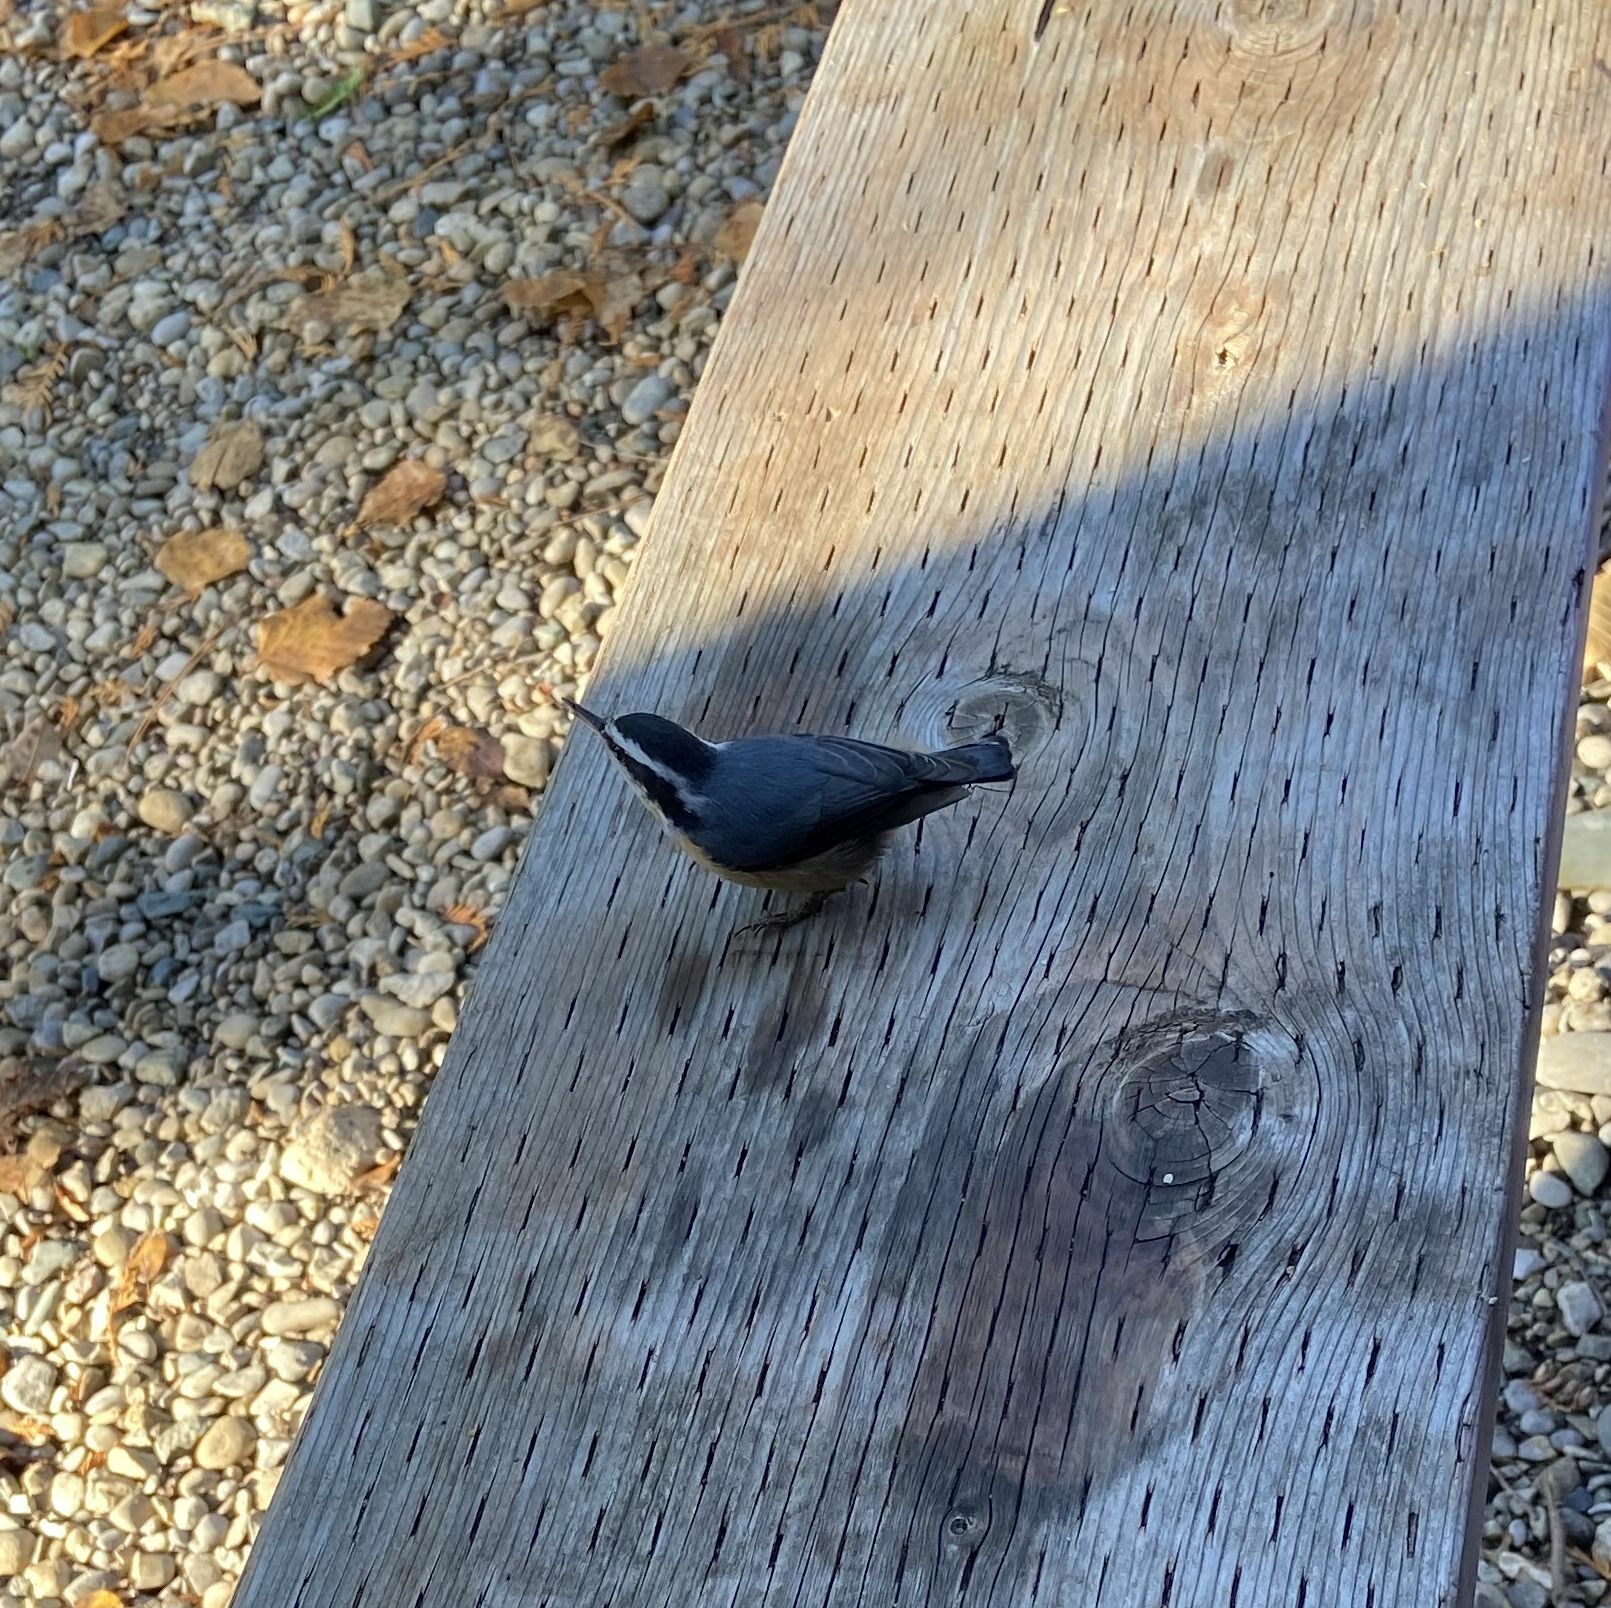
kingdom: Animalia
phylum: Chordata
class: Aves
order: Passeriformes
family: Sittidae
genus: Sitta
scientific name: Sitta canadensis
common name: Red-breasted nuthatch
